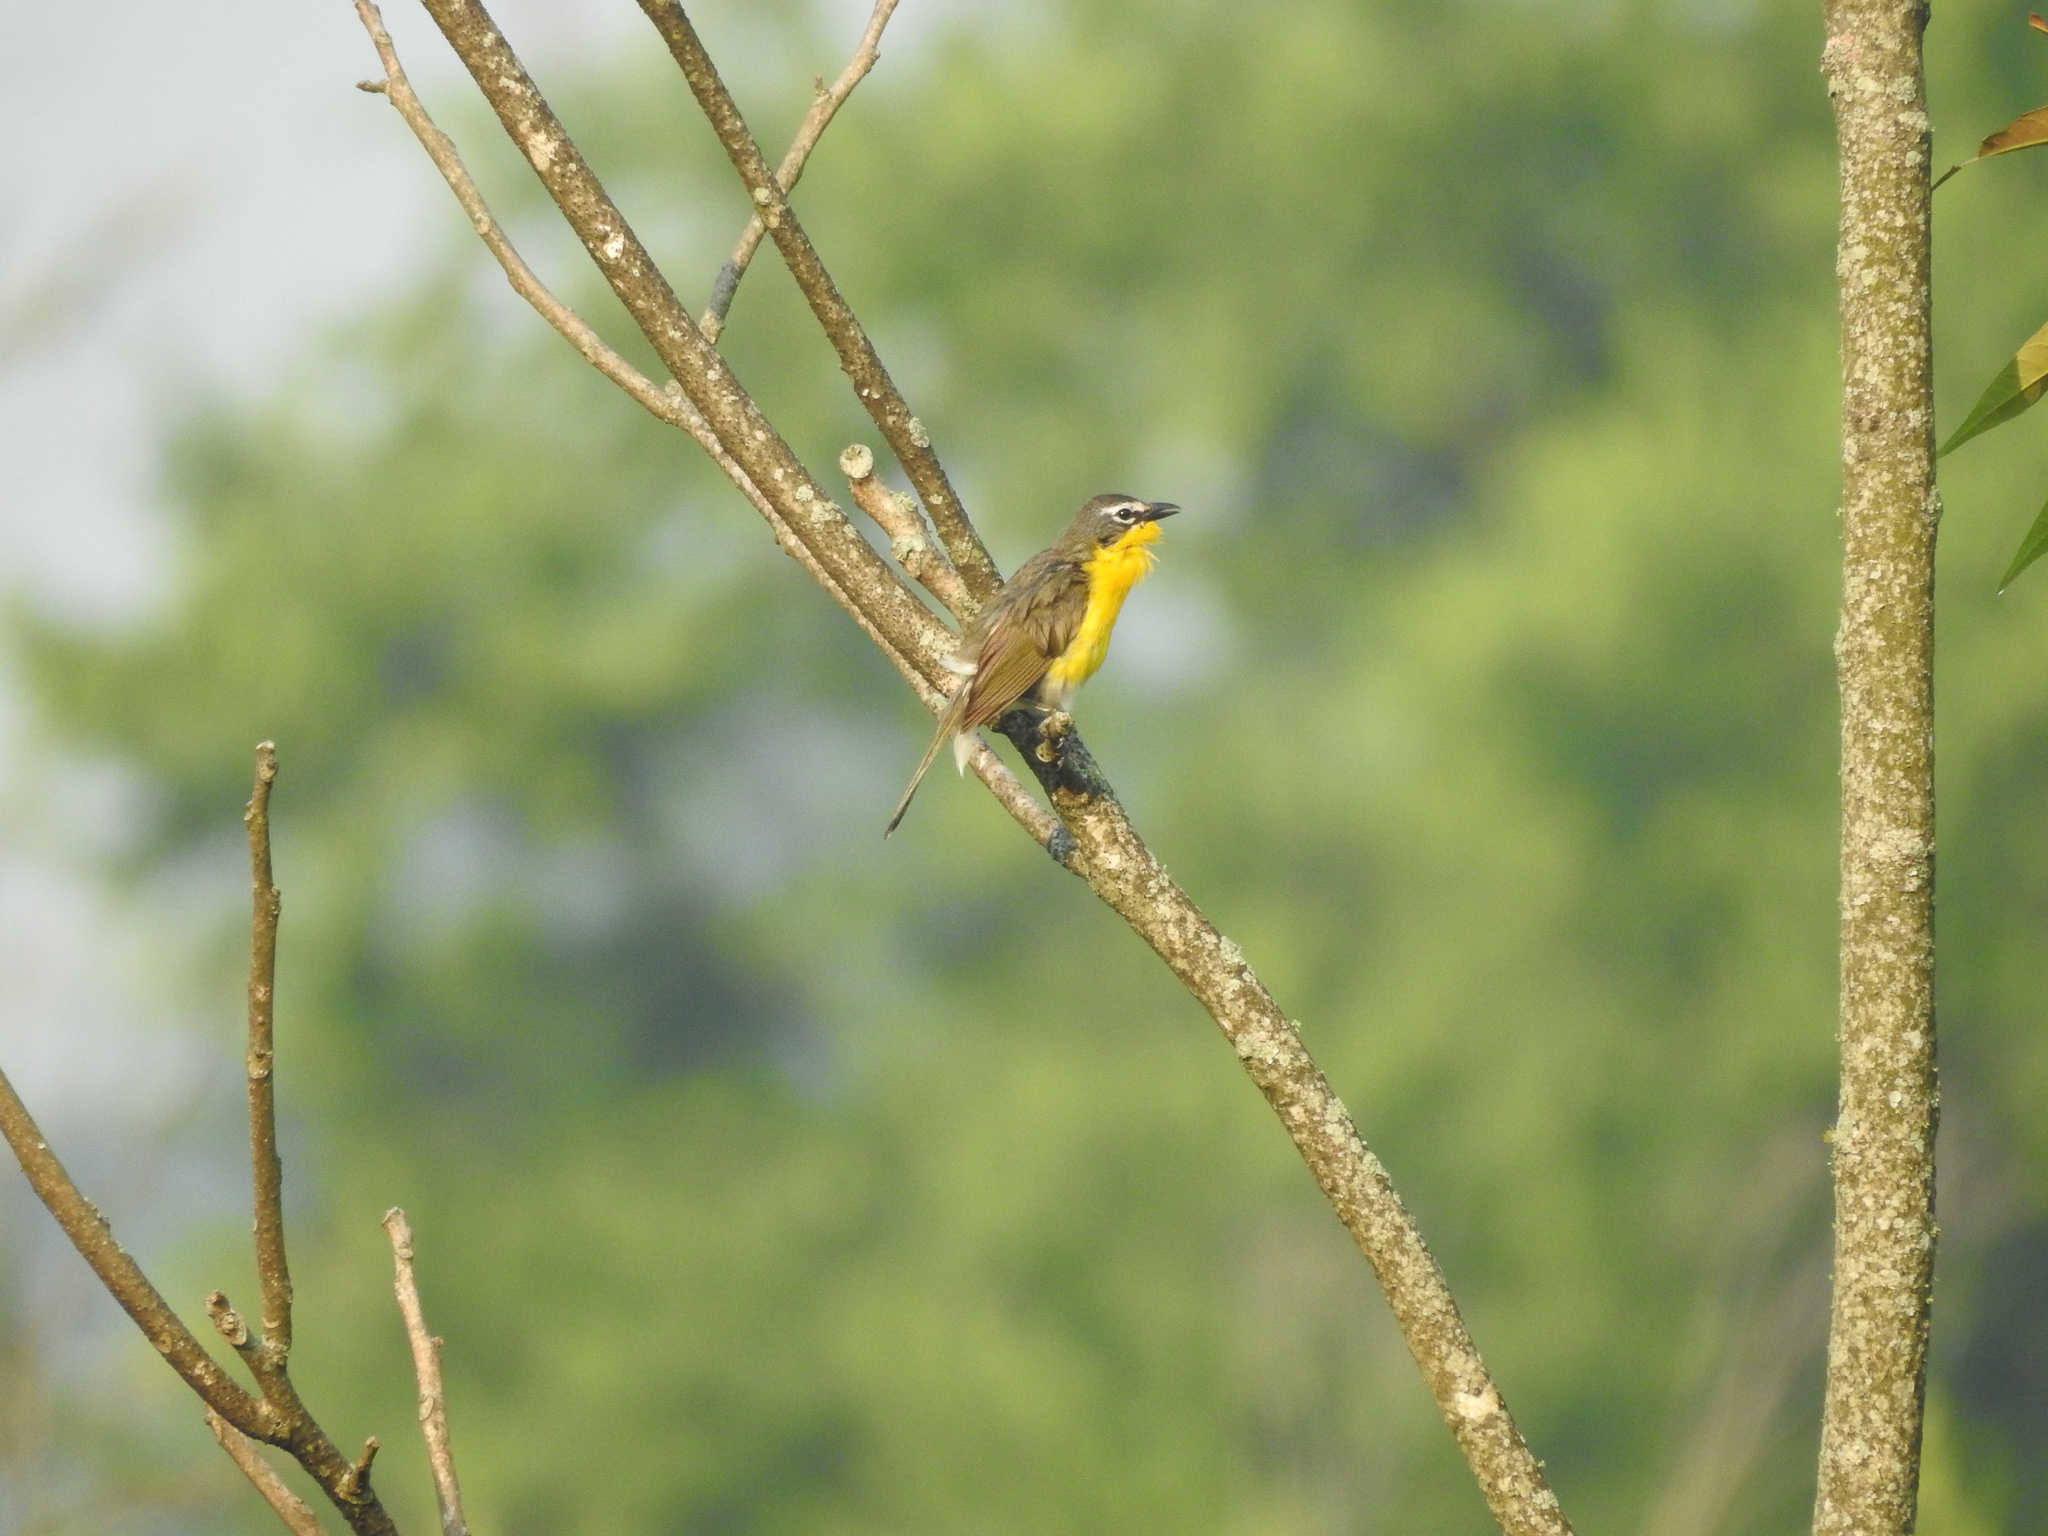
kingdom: Animalia
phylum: Chordata
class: Aves
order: Passeriformes
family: Parulidae
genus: Icteria
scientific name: Icteria virens
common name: Yellow-breasted chat
